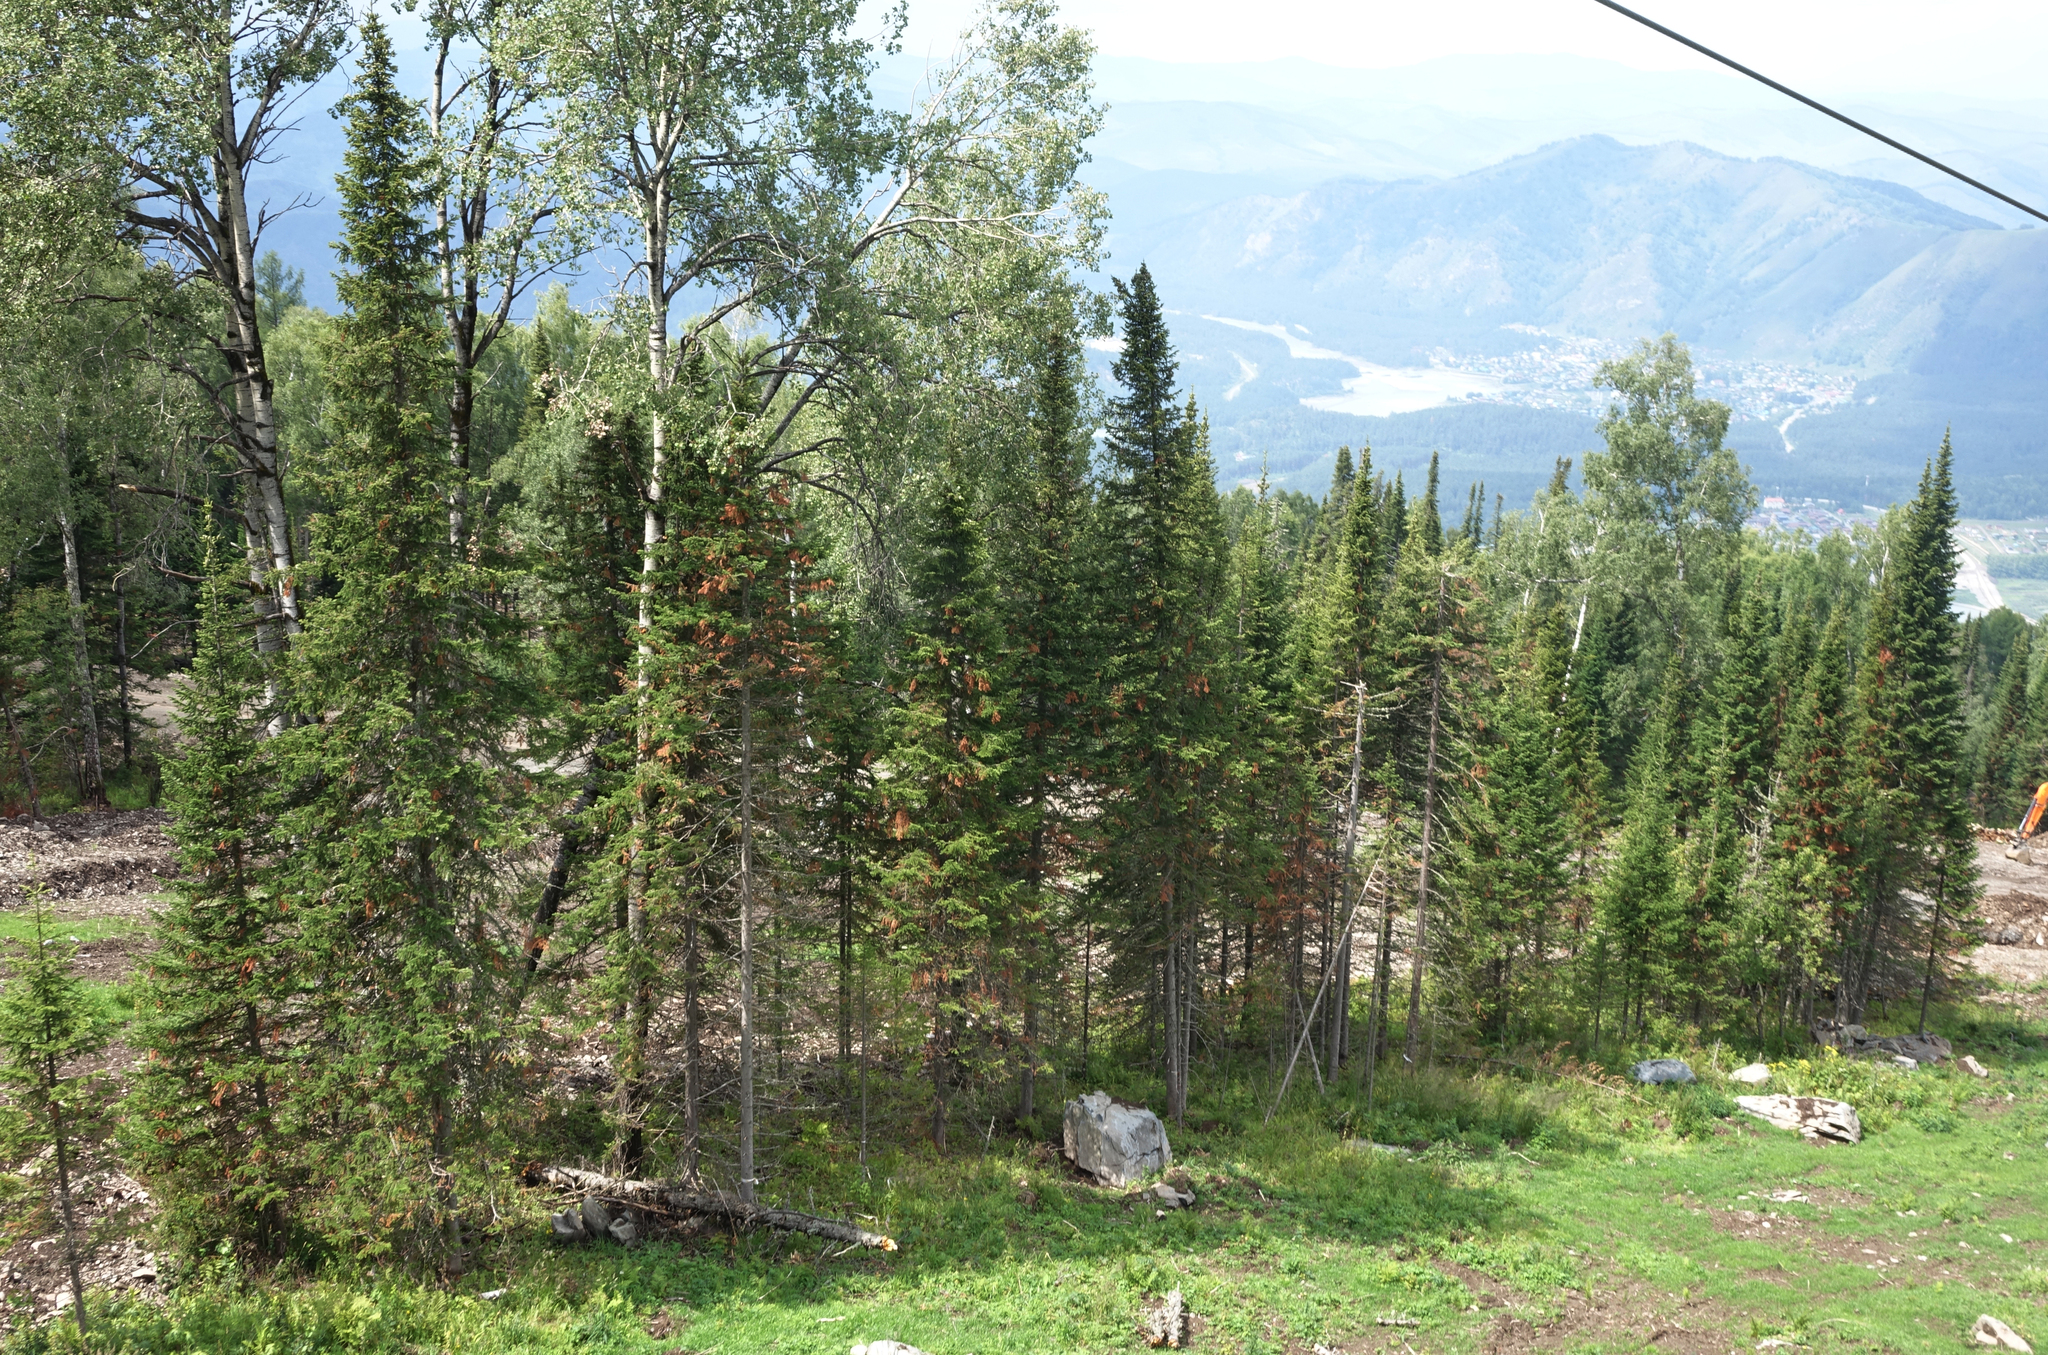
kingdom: Plantae
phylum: Tracheophyta
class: Pinopsida
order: Pinales
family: Pinaceae
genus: Abies
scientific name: Abies sibirica
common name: Siberian fir
